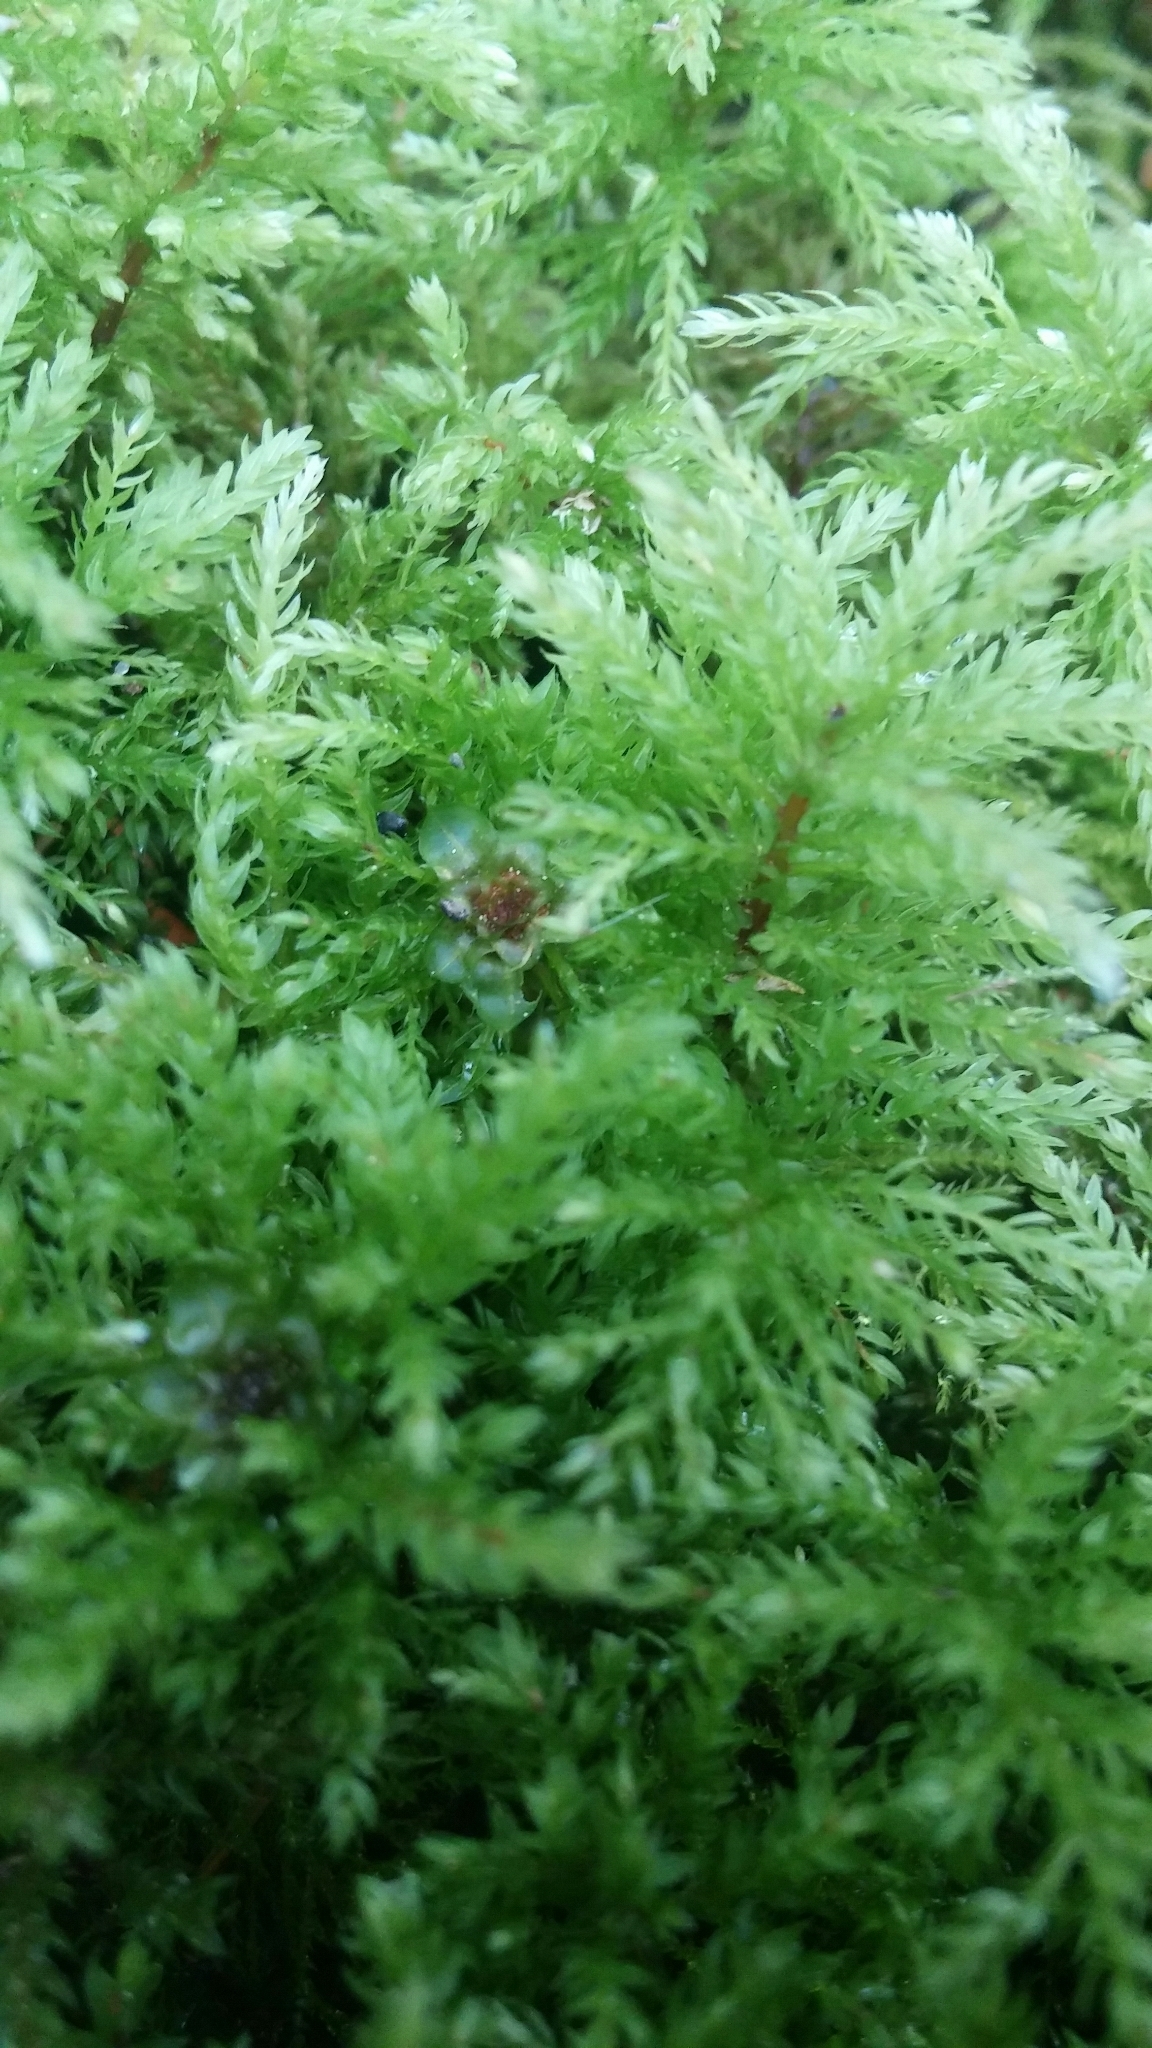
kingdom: Plantae
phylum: Bryophyta
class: Bryopsida
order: Bryales
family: Mniaceae
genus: Leucolepis
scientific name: Leucolepis acanthoneura
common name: Leucolepis umbrella moss
